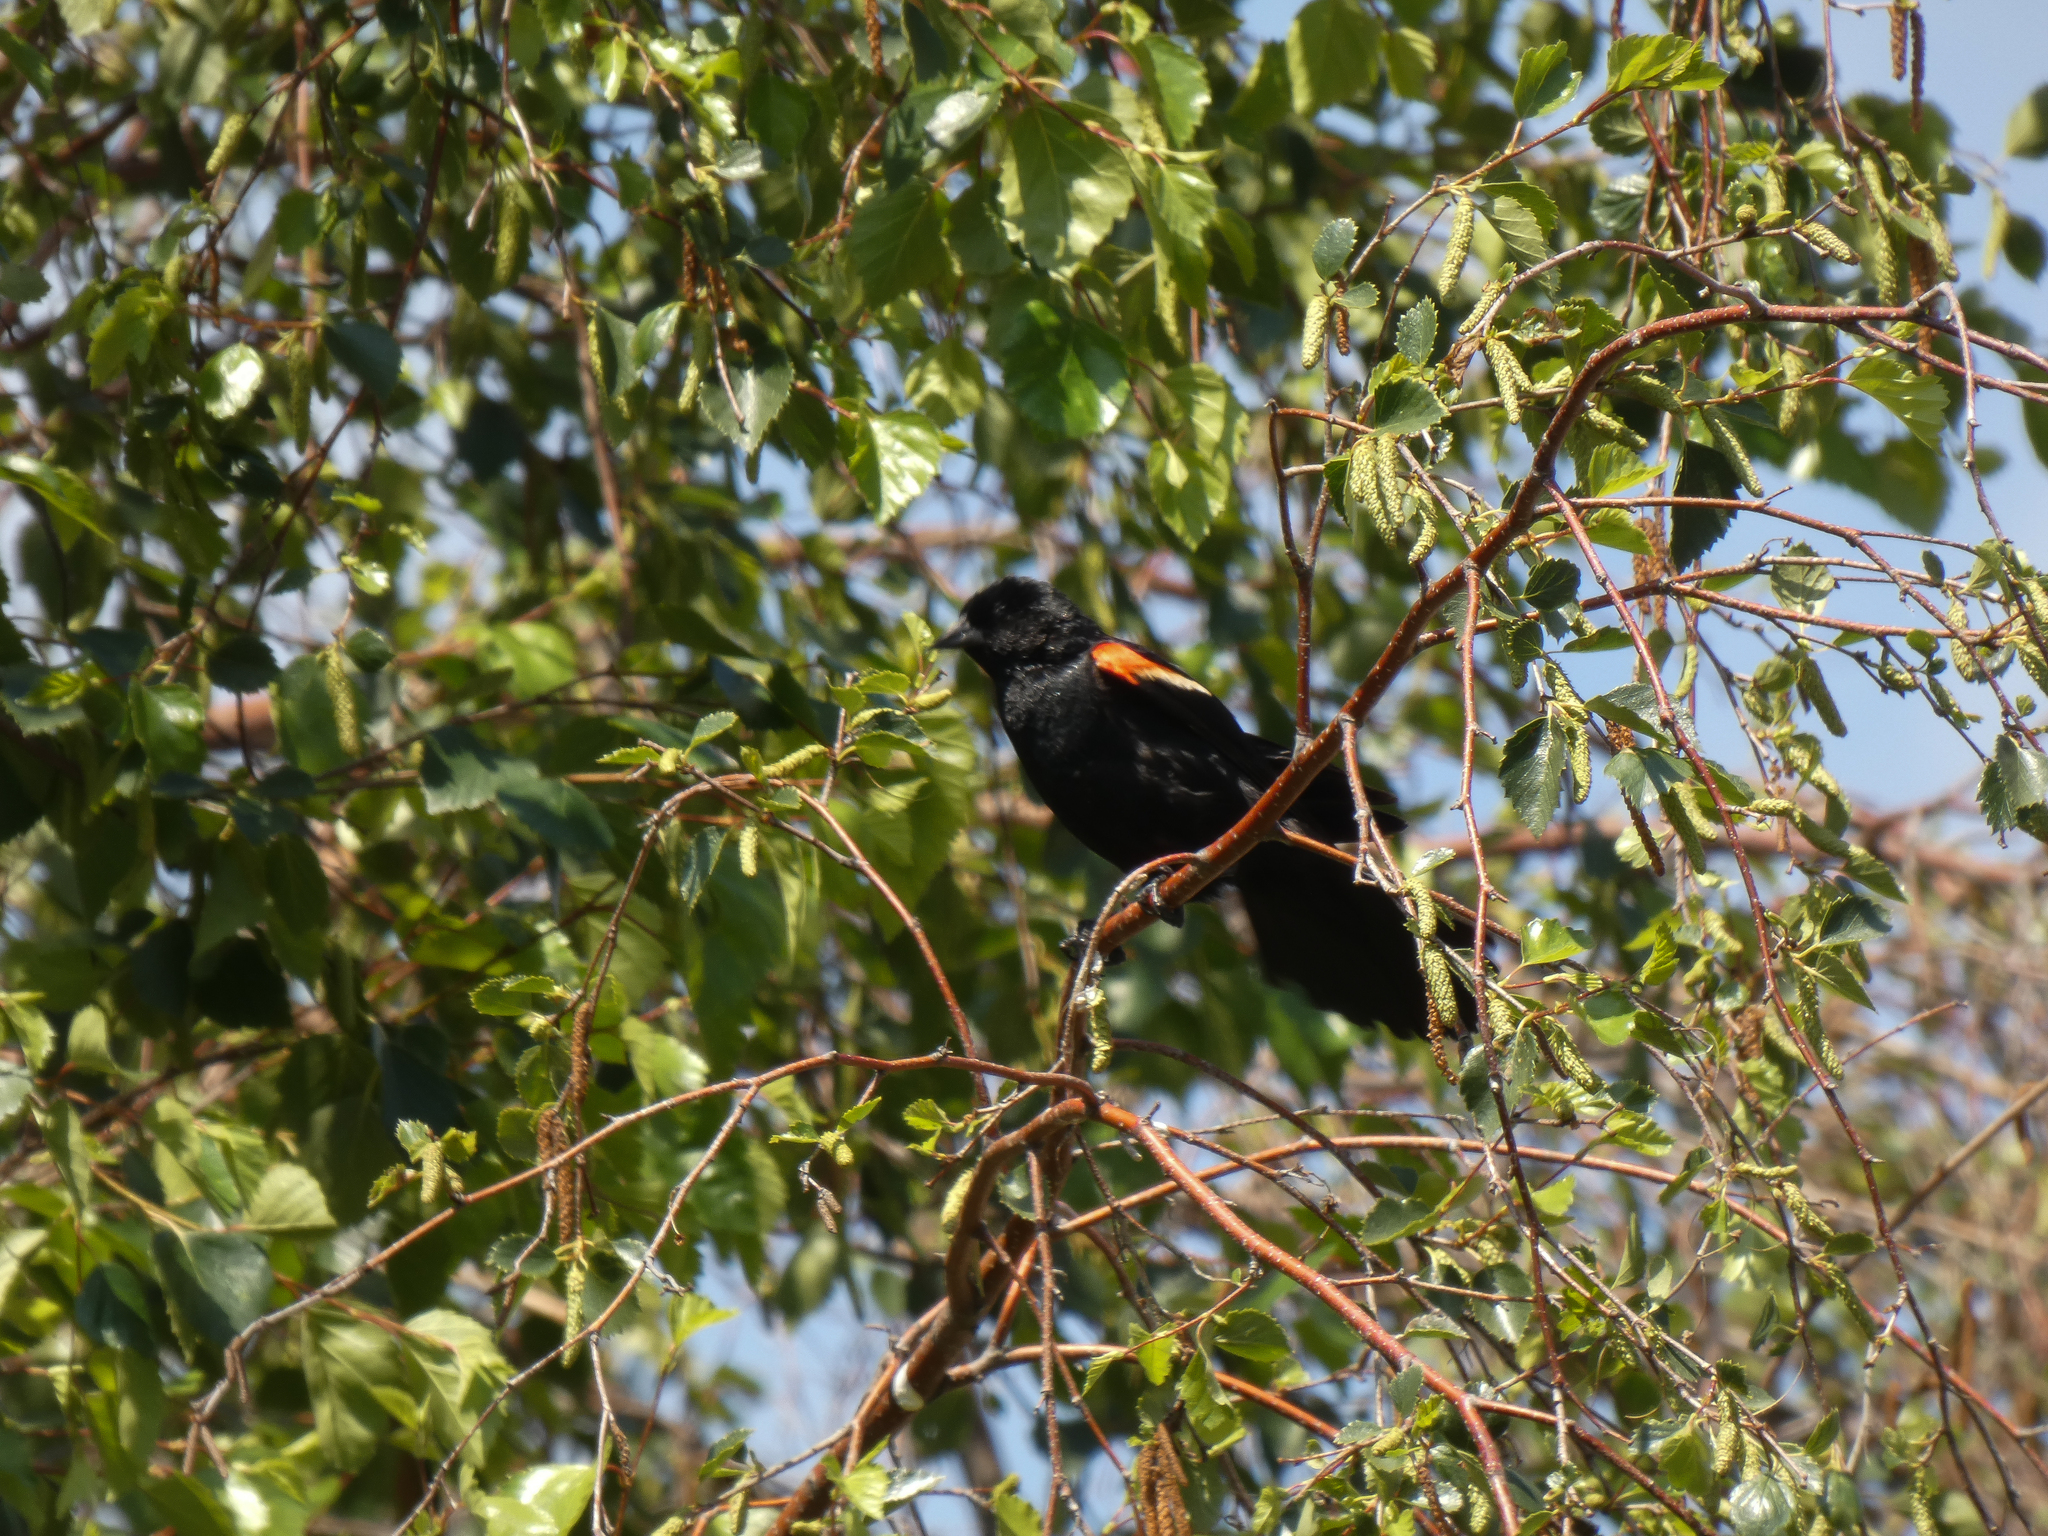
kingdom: Animalia
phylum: Chordata
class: Aves
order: Passeriformes
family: Icteridae
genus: Agelaius
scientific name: Agelaius phoeniceus
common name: Red-winged blackbird
